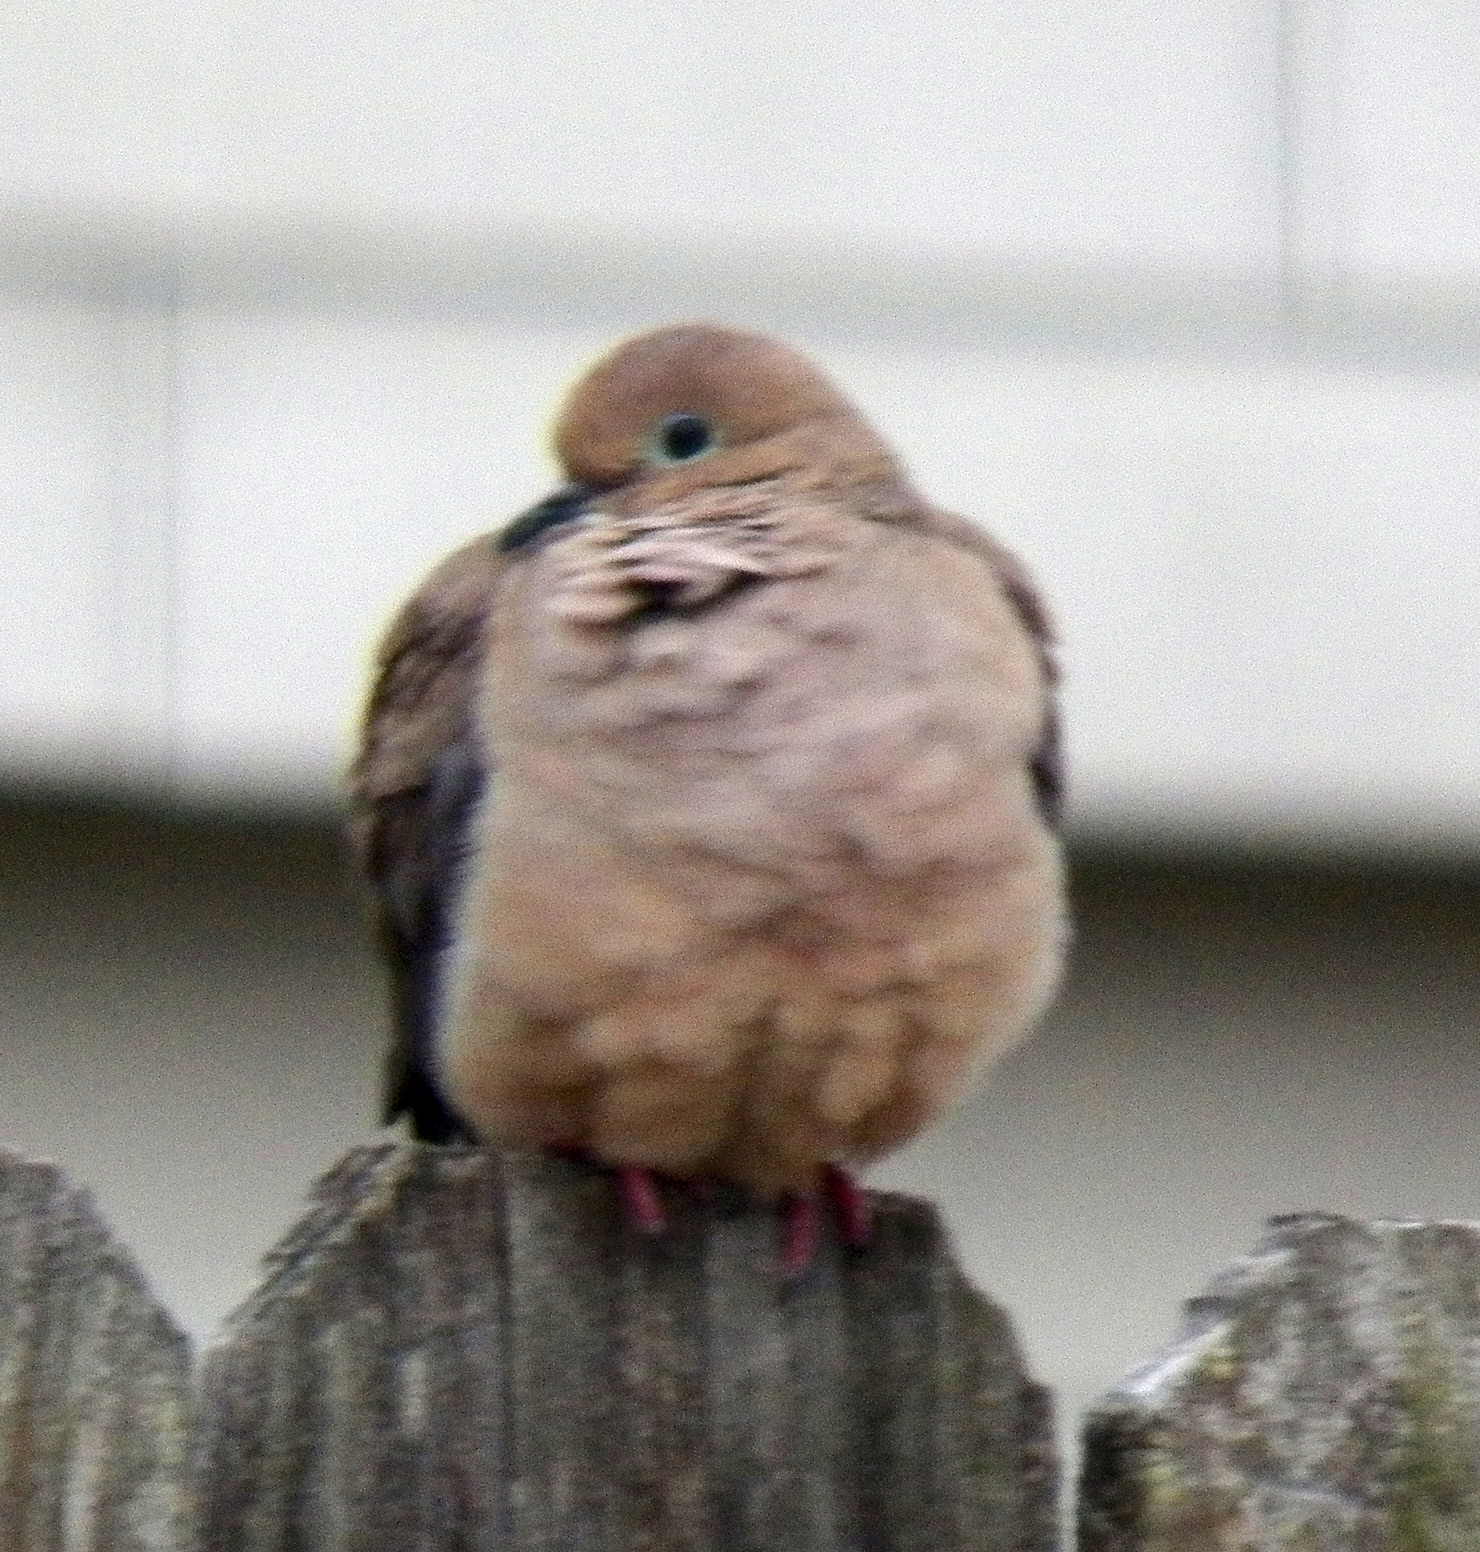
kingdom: Animalia
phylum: Chordata
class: Aves
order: Columbiformes
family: Columbidae
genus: Zenaida
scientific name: Zenaida macroura
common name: Mourning dove
